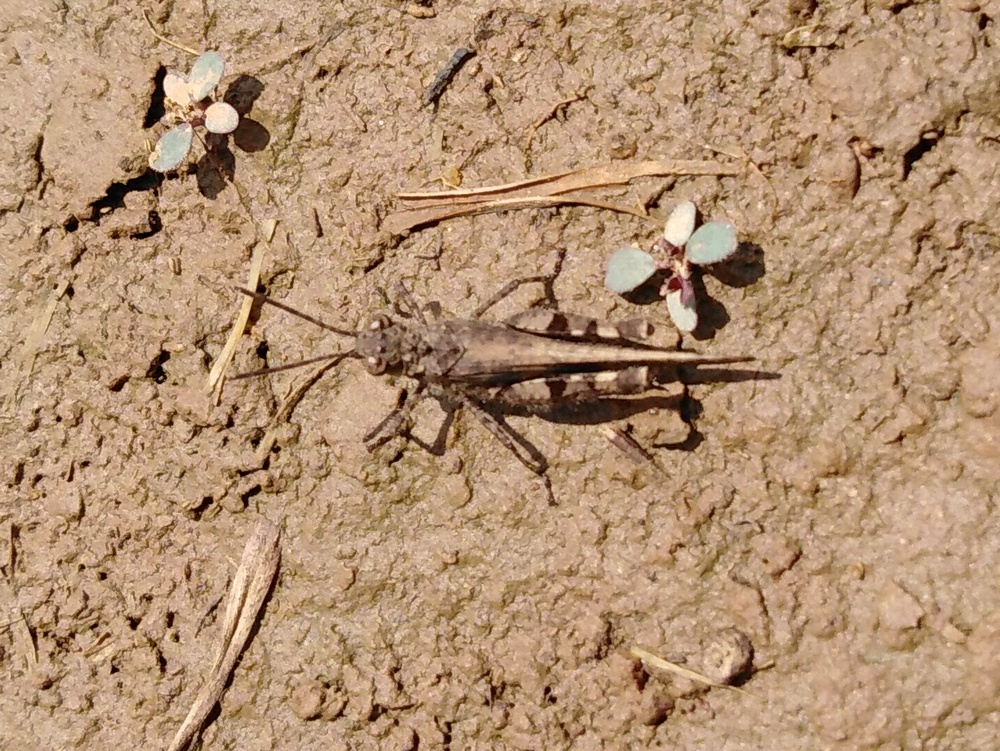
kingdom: Animalia
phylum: Arthropoda
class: Insecta
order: Orthoptera
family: Acrididae
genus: Trilophidia
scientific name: Trilophidia annulata
